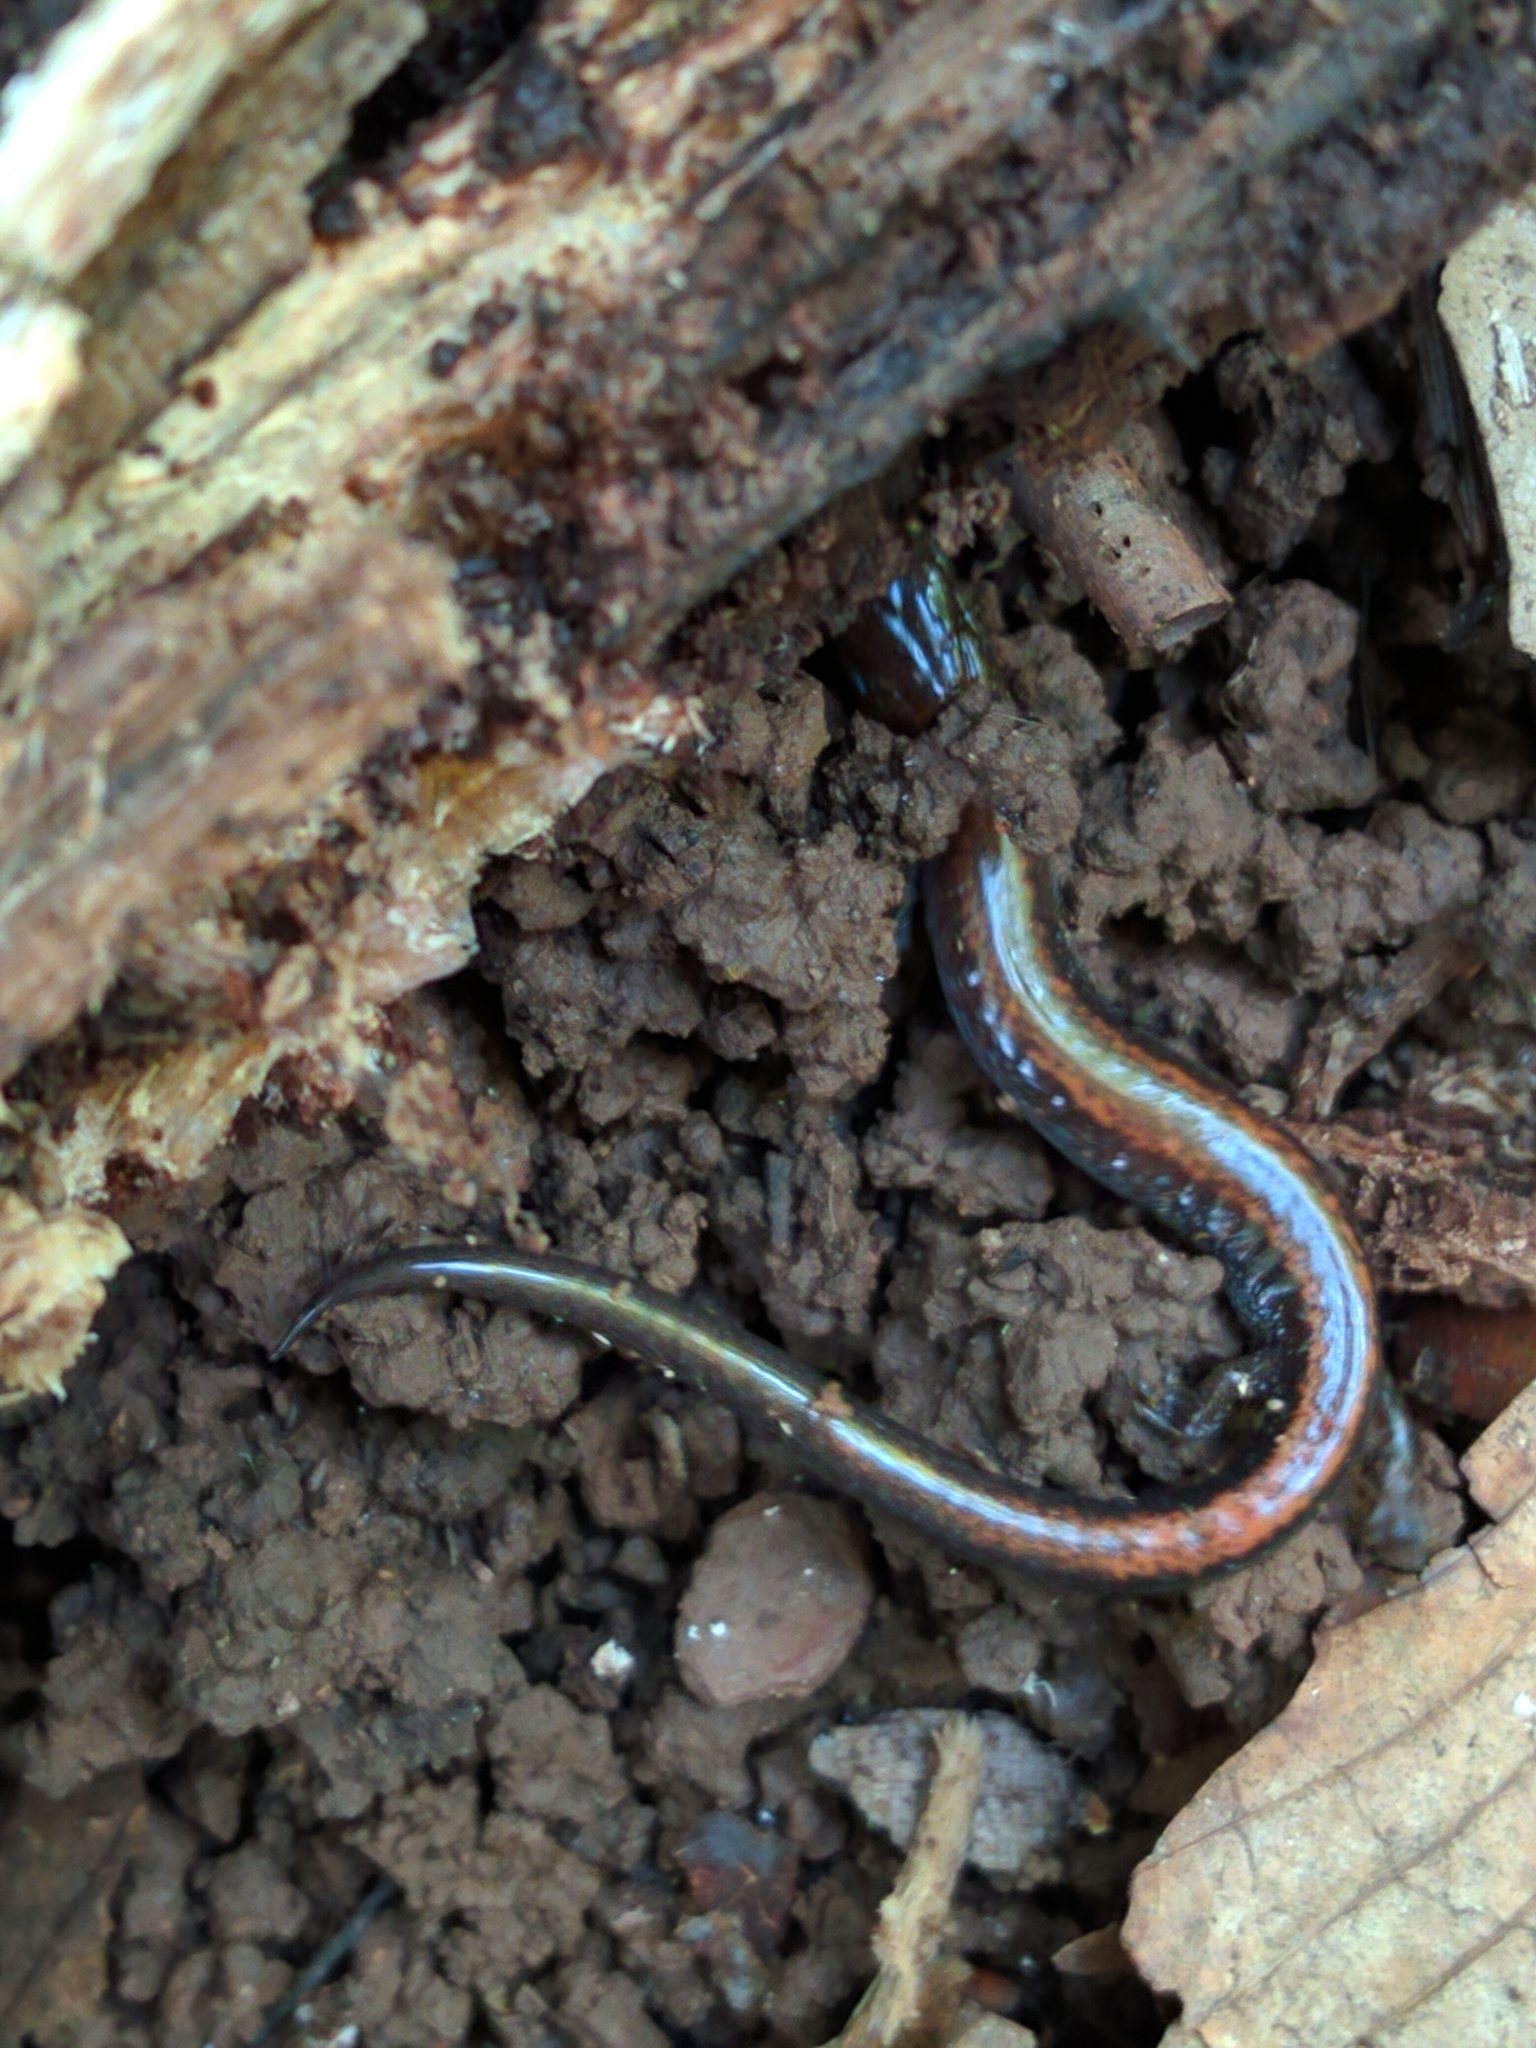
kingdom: Animalia
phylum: Chordata
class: Amphibia
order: Caudata
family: Plethodontidae
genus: Plethodon
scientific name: Plethodon cinereus
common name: Redback salamander
